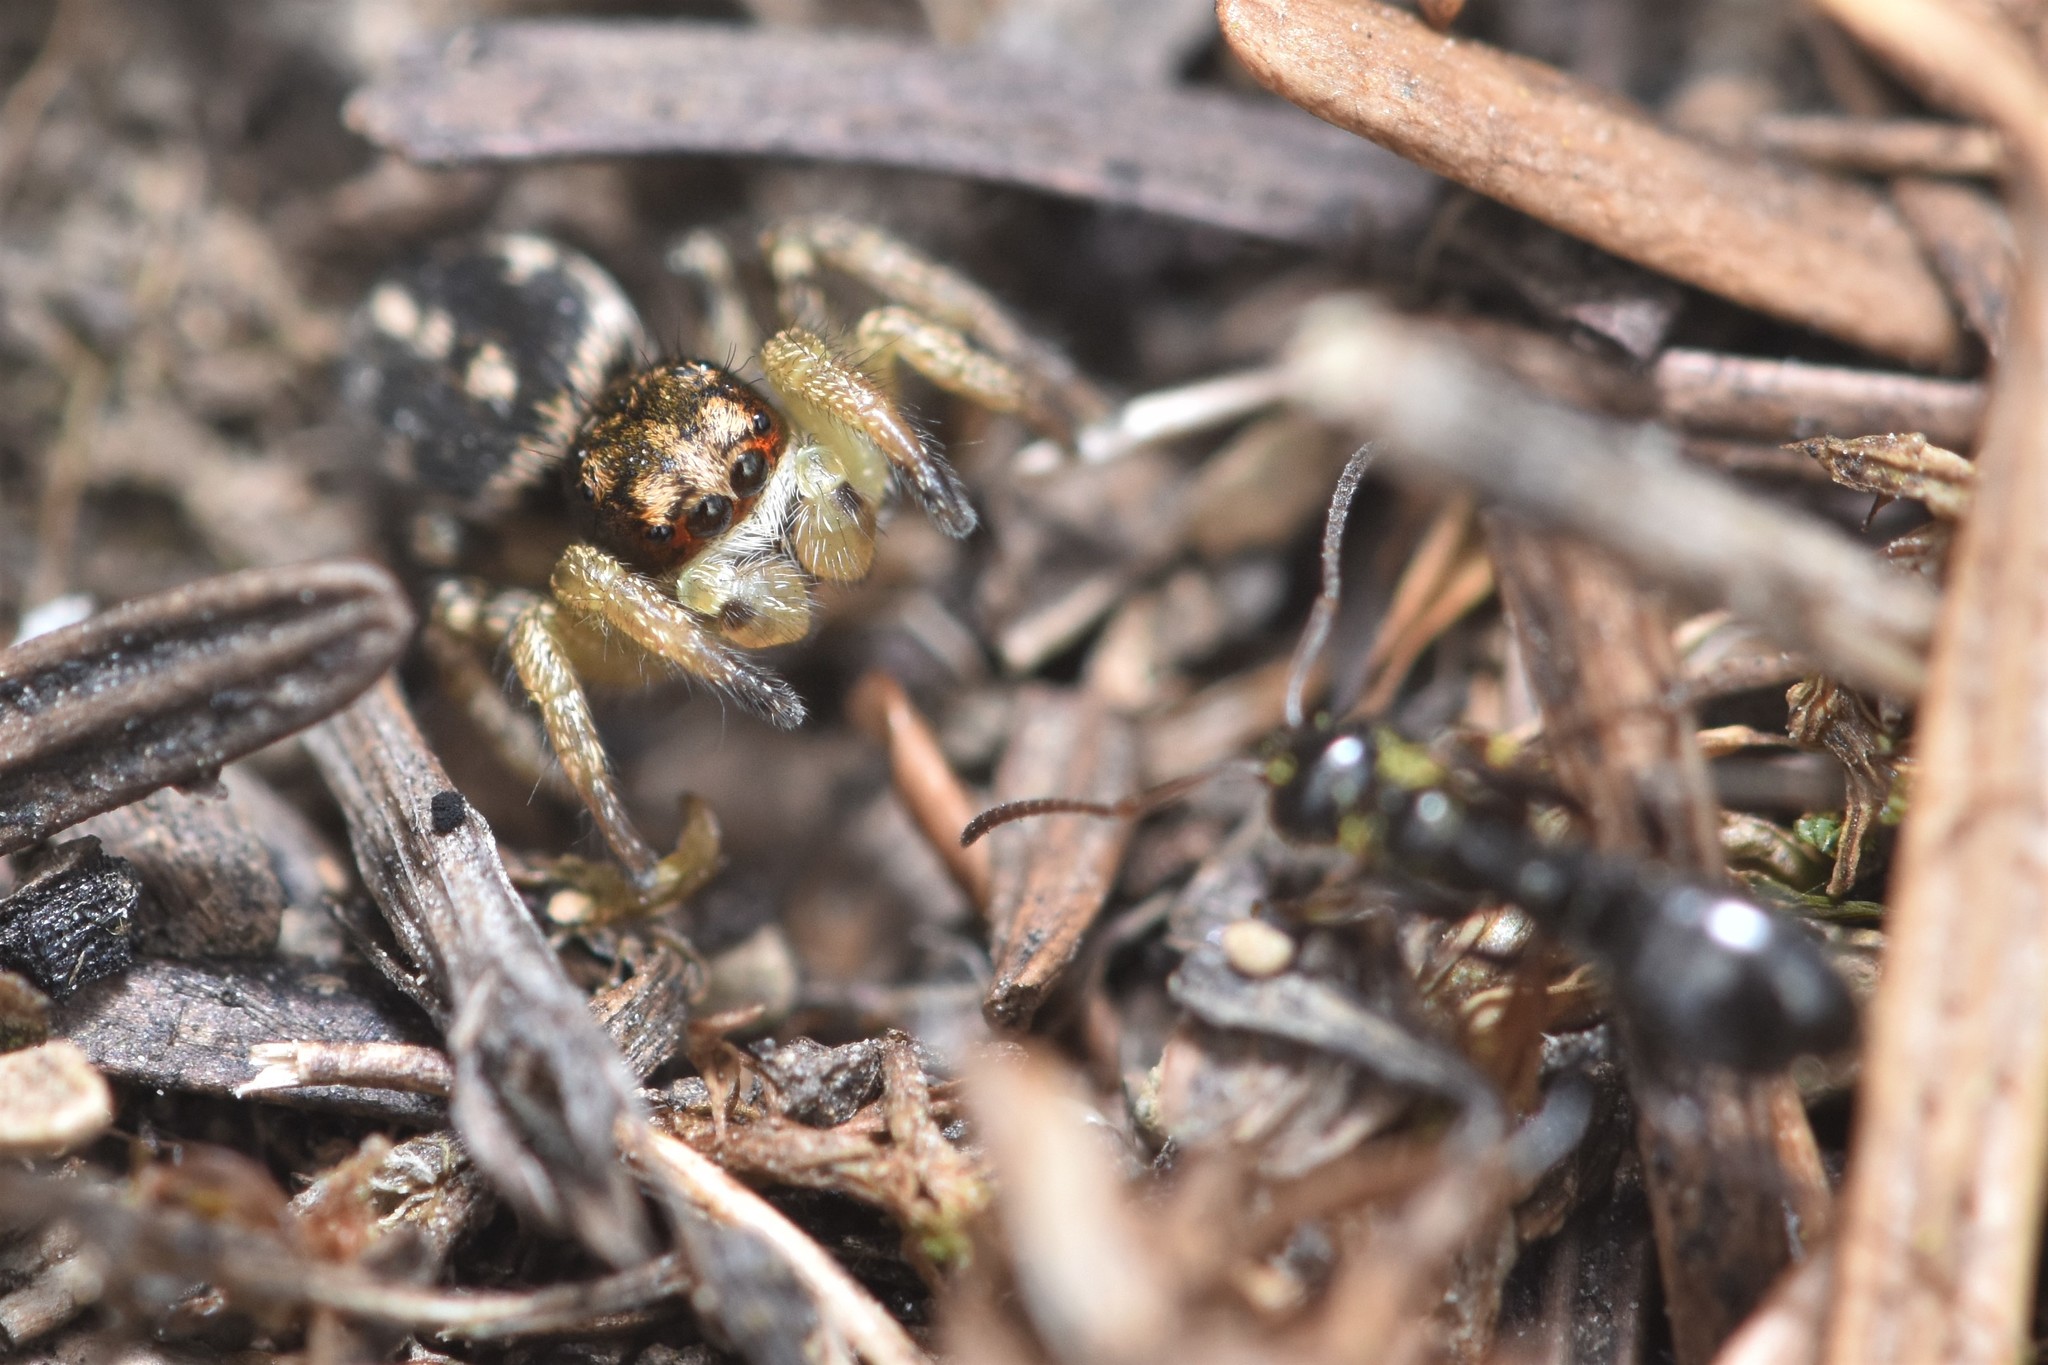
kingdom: Animalia
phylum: Arthropoda
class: Arachnida
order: Araneae
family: Salticidae
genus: Habronattus
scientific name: Habronattus ophrys
